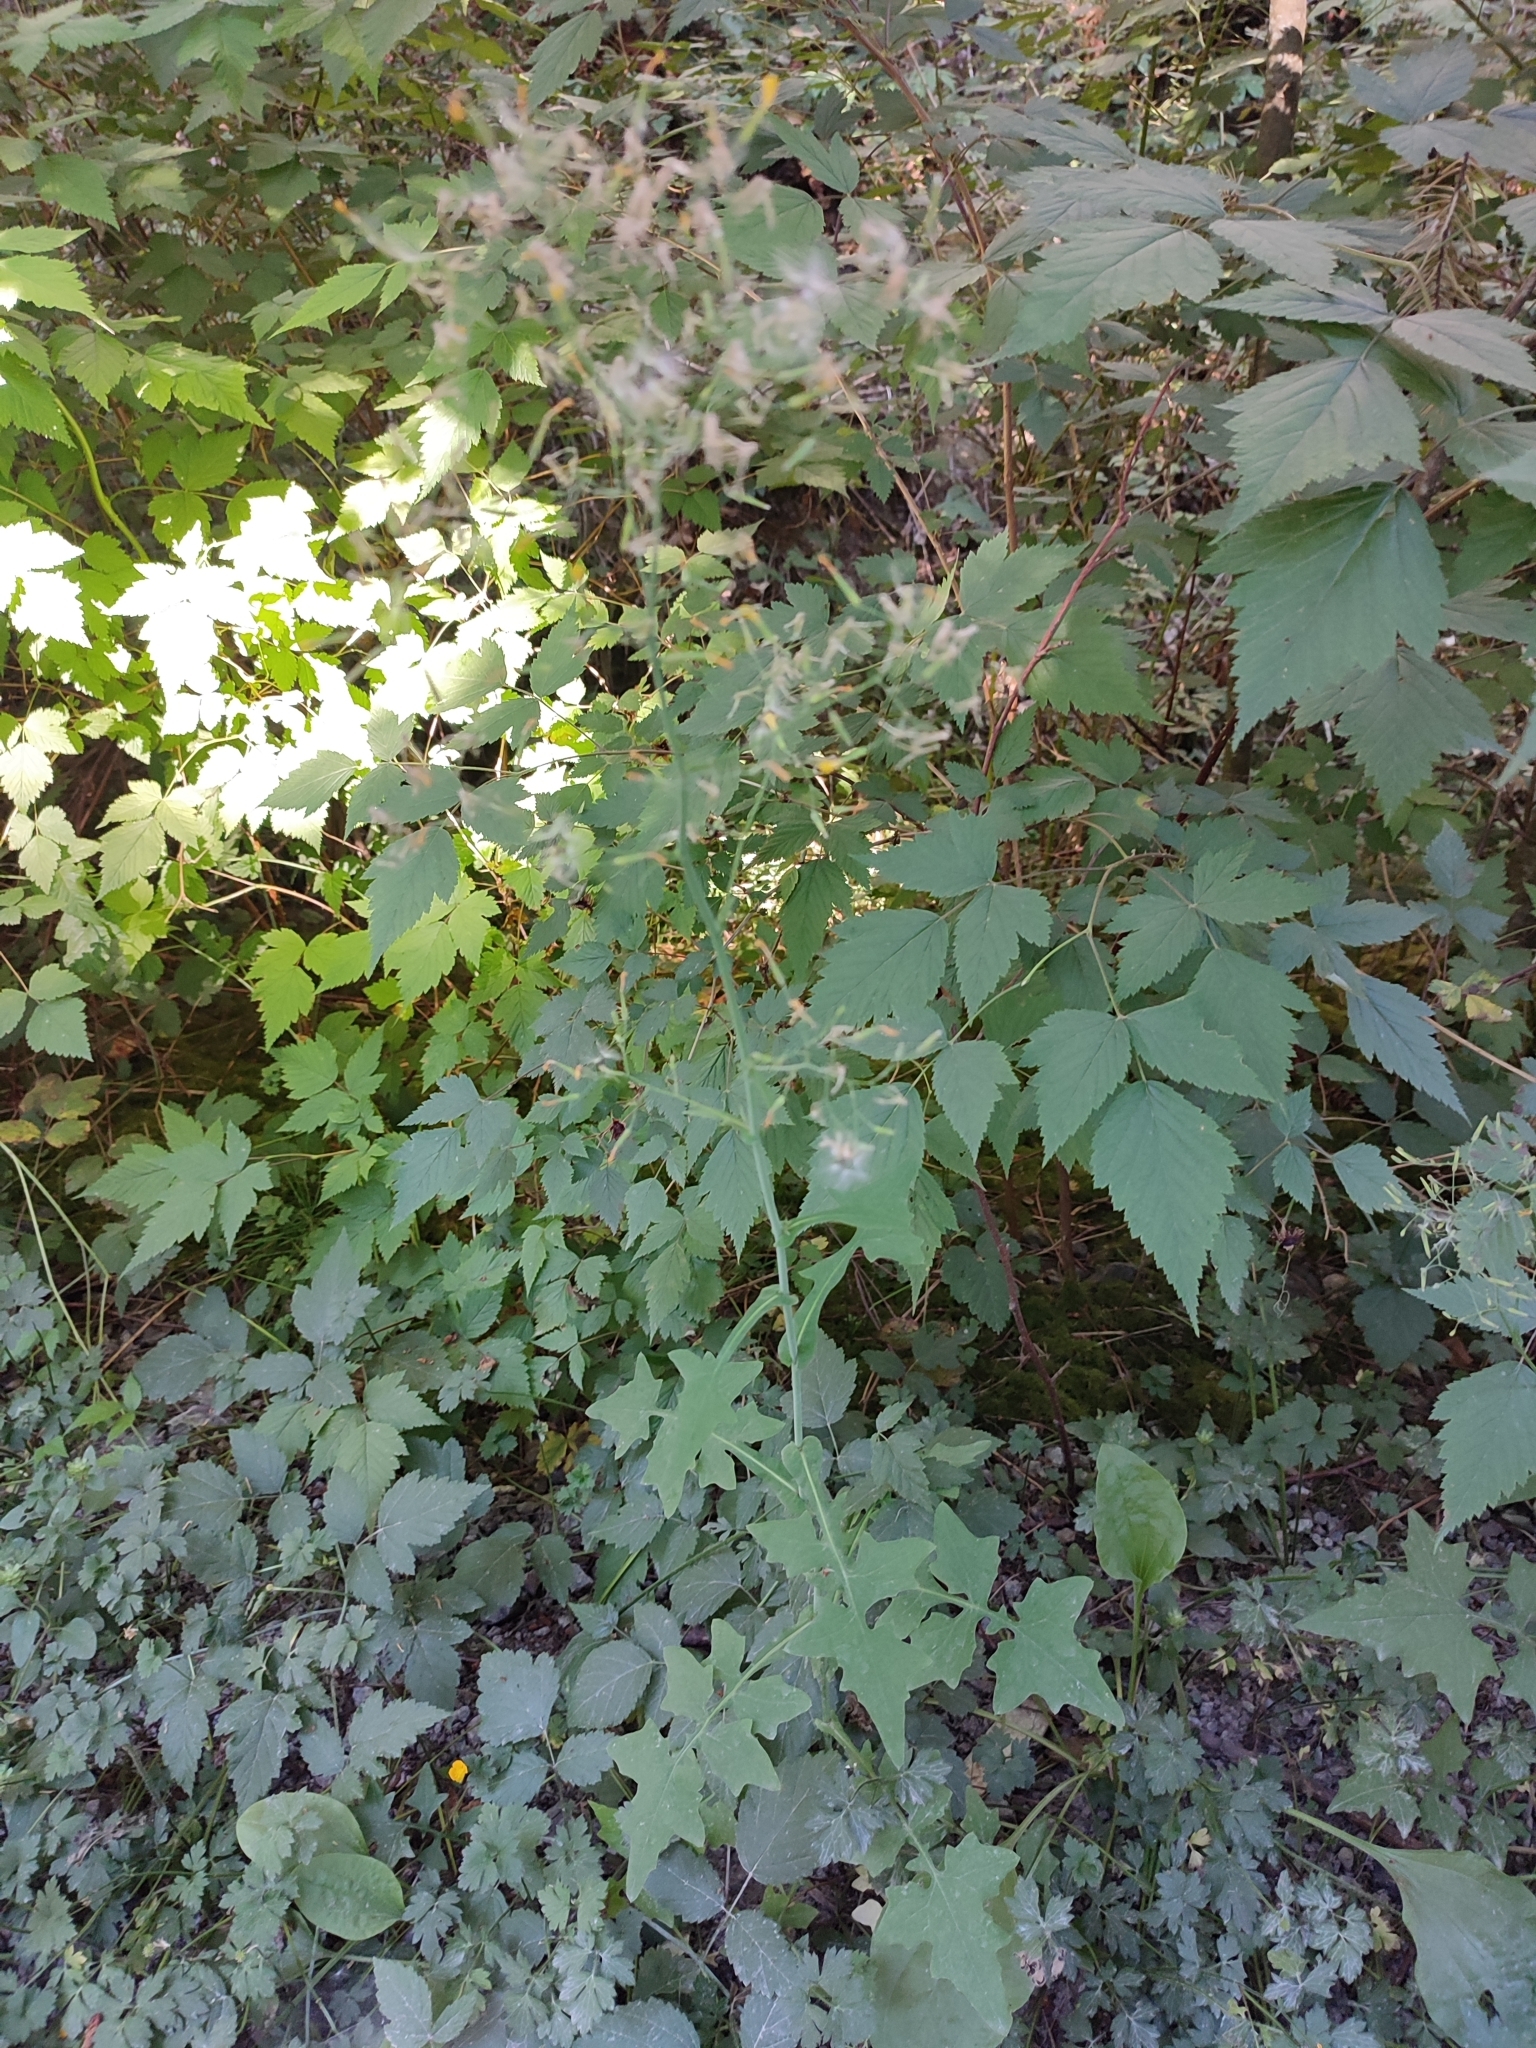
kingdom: Plantae
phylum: Tracheophyta
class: Magnoliopsida
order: Asterales
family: Asteraceae
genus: Mycelis
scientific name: Mycelis muralis
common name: Wall lettuce
